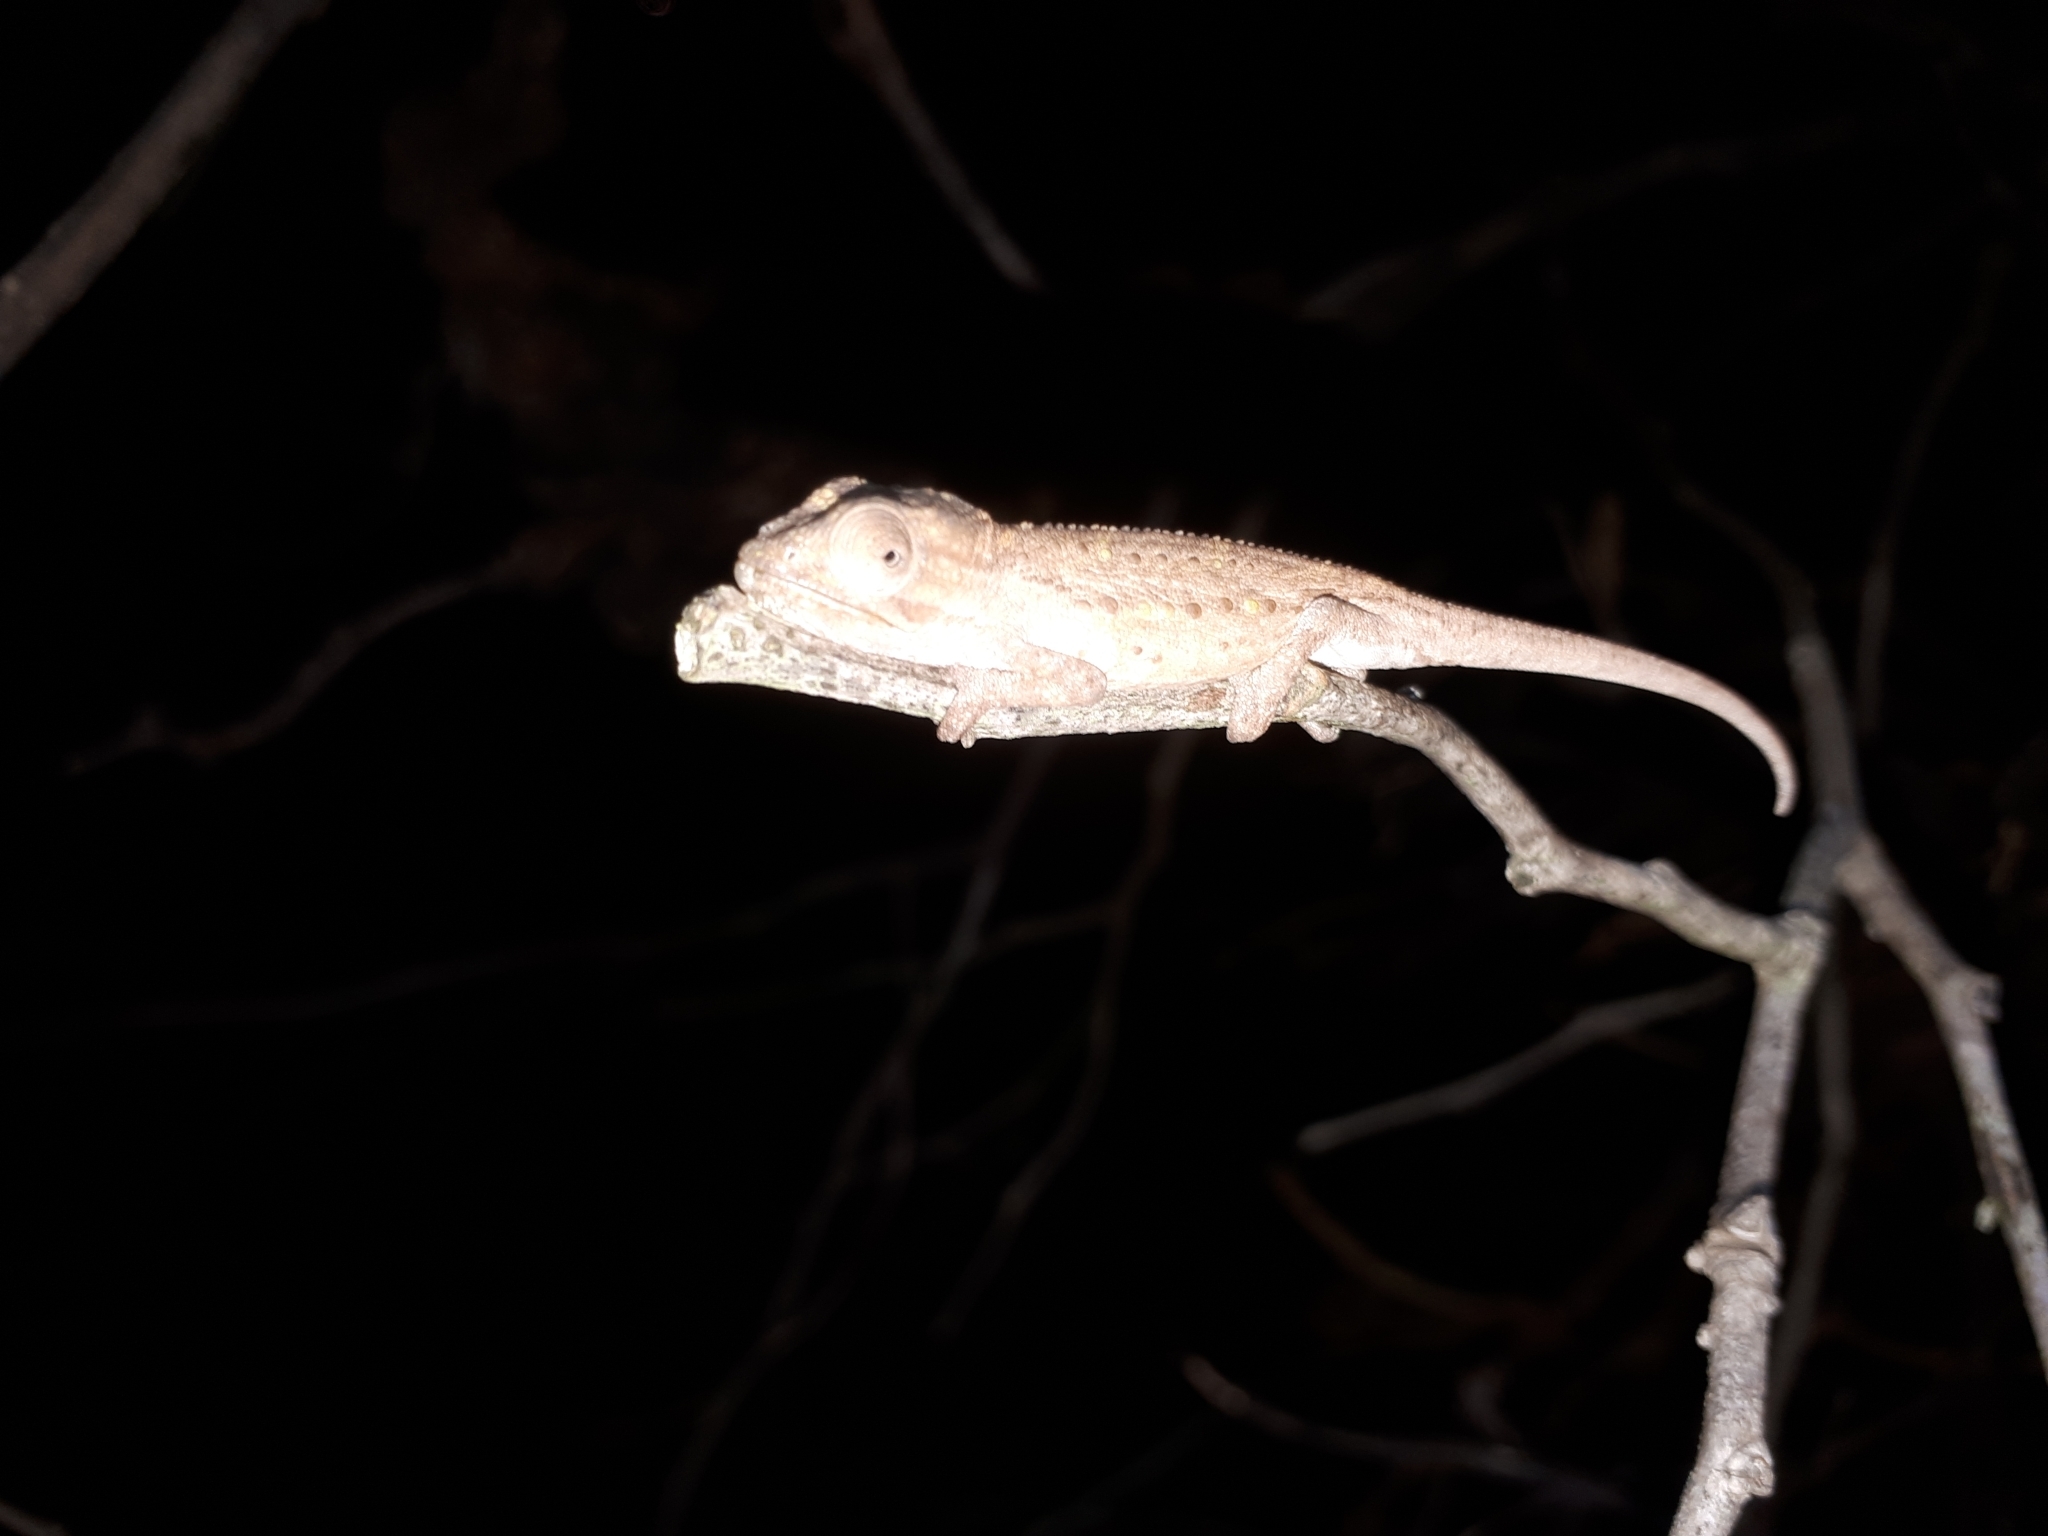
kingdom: Animalia
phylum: Chordata
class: Squamata
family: Chamaeleonidae
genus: Bradypodion
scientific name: Bradypodion pumilum
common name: Cape dwarf chameleon
